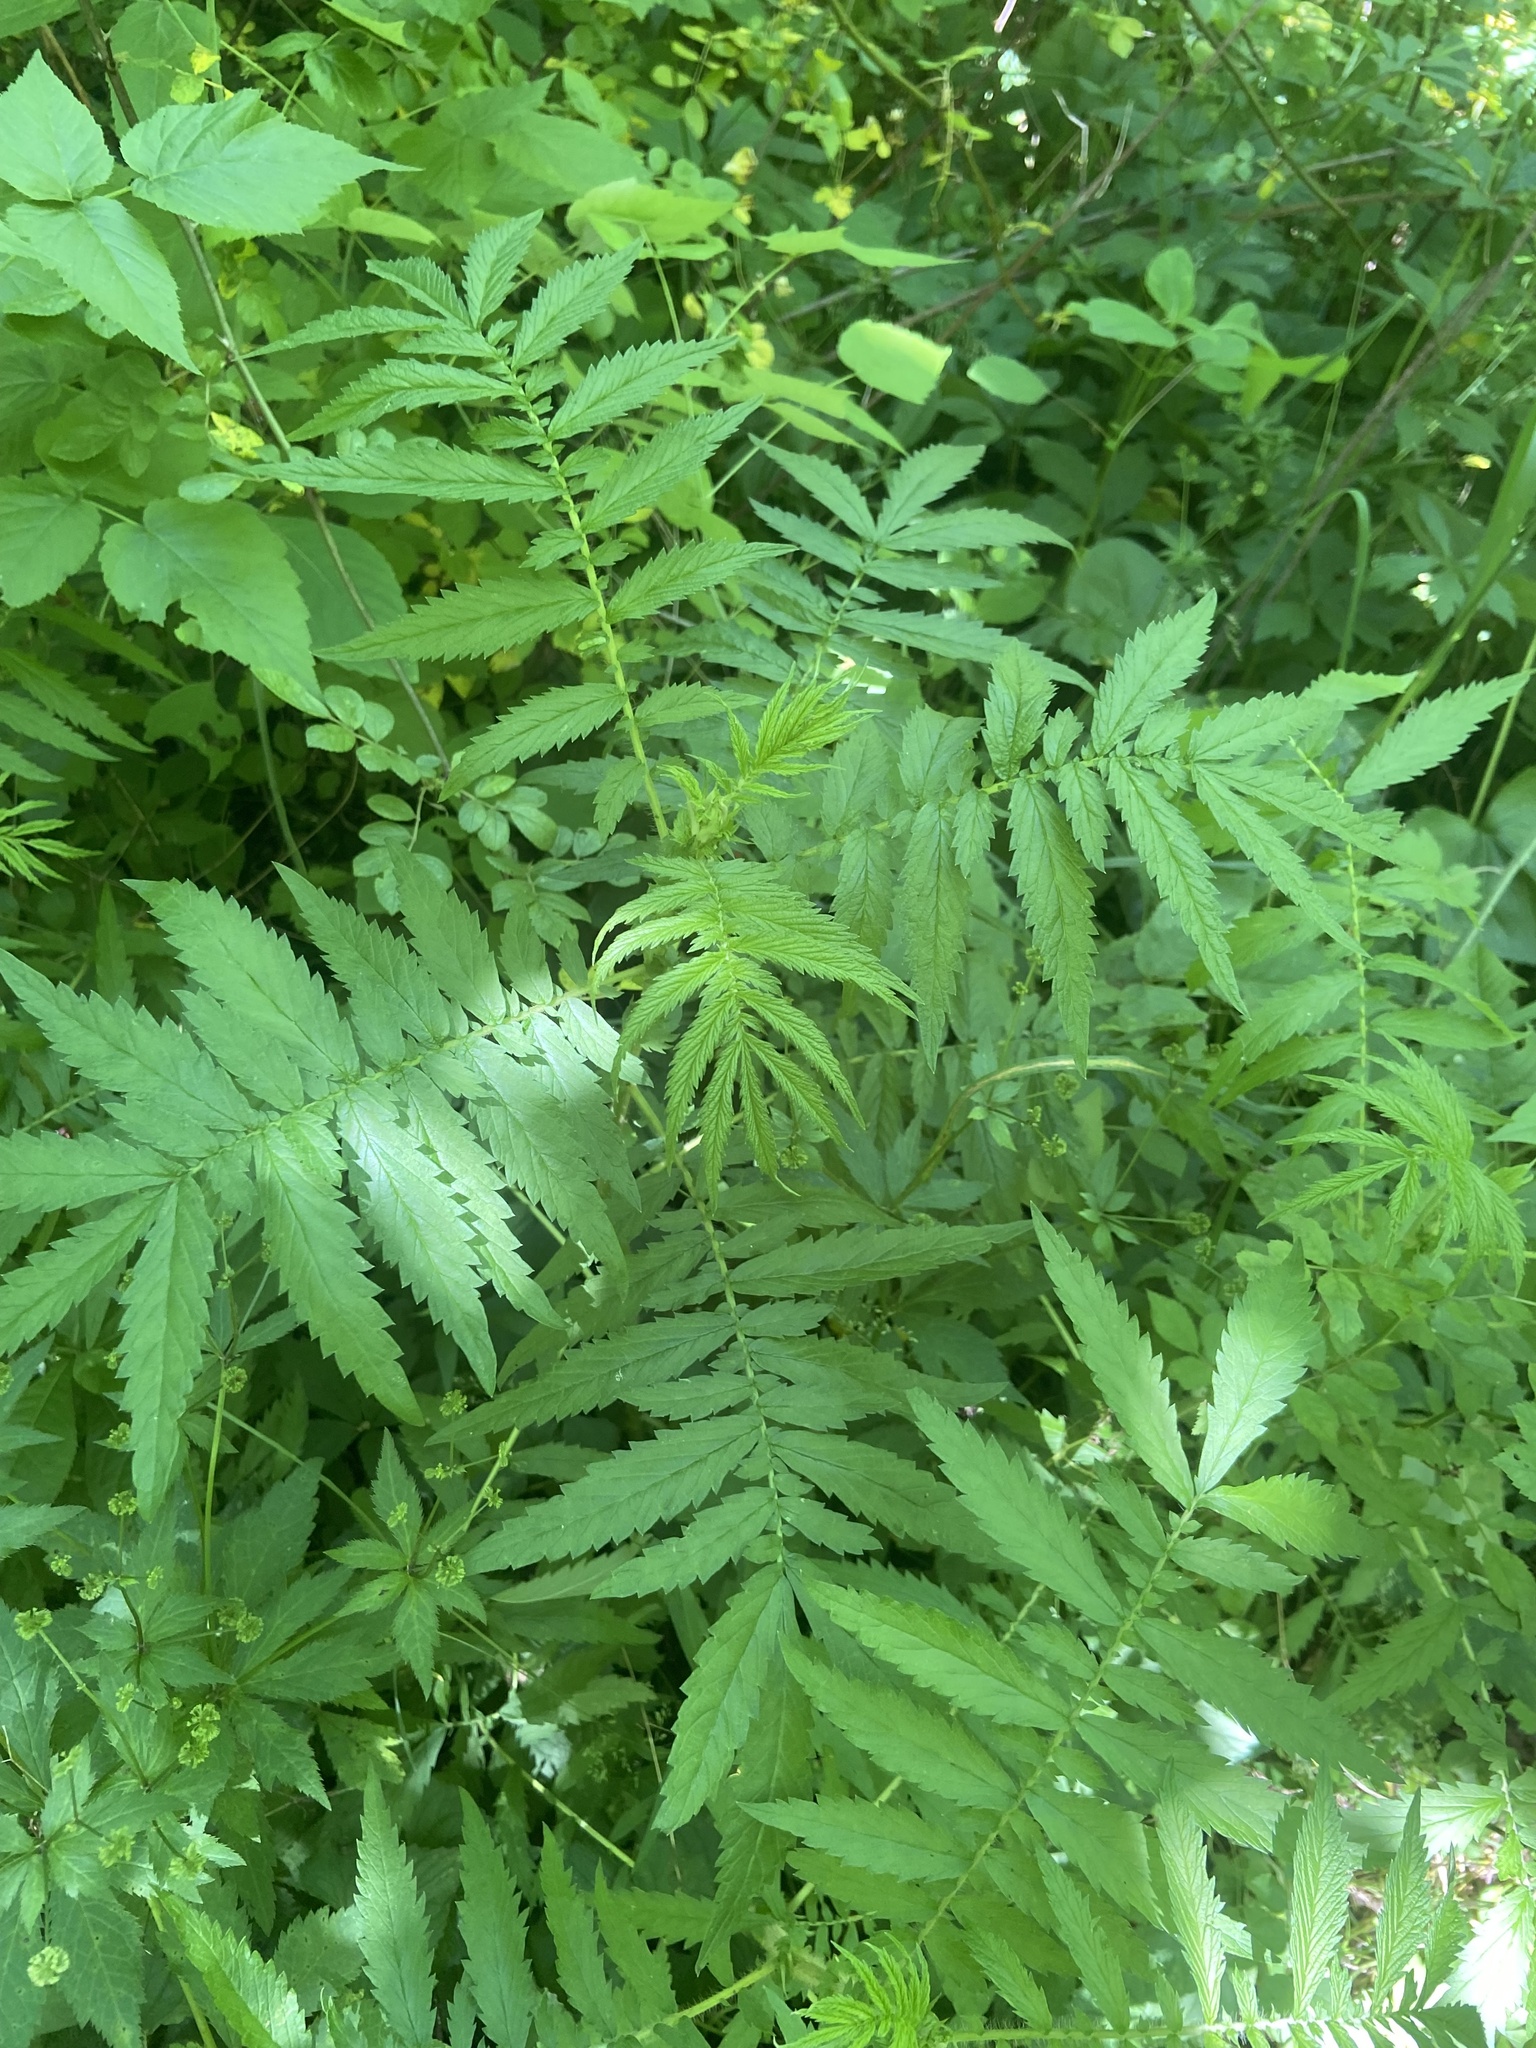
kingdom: Plantae
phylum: Tracheophyta
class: Magnoliopsida
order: Rosales
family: Rosaceae
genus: Agrimonia
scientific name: Agrimonia parviflora
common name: Harvest-lice
